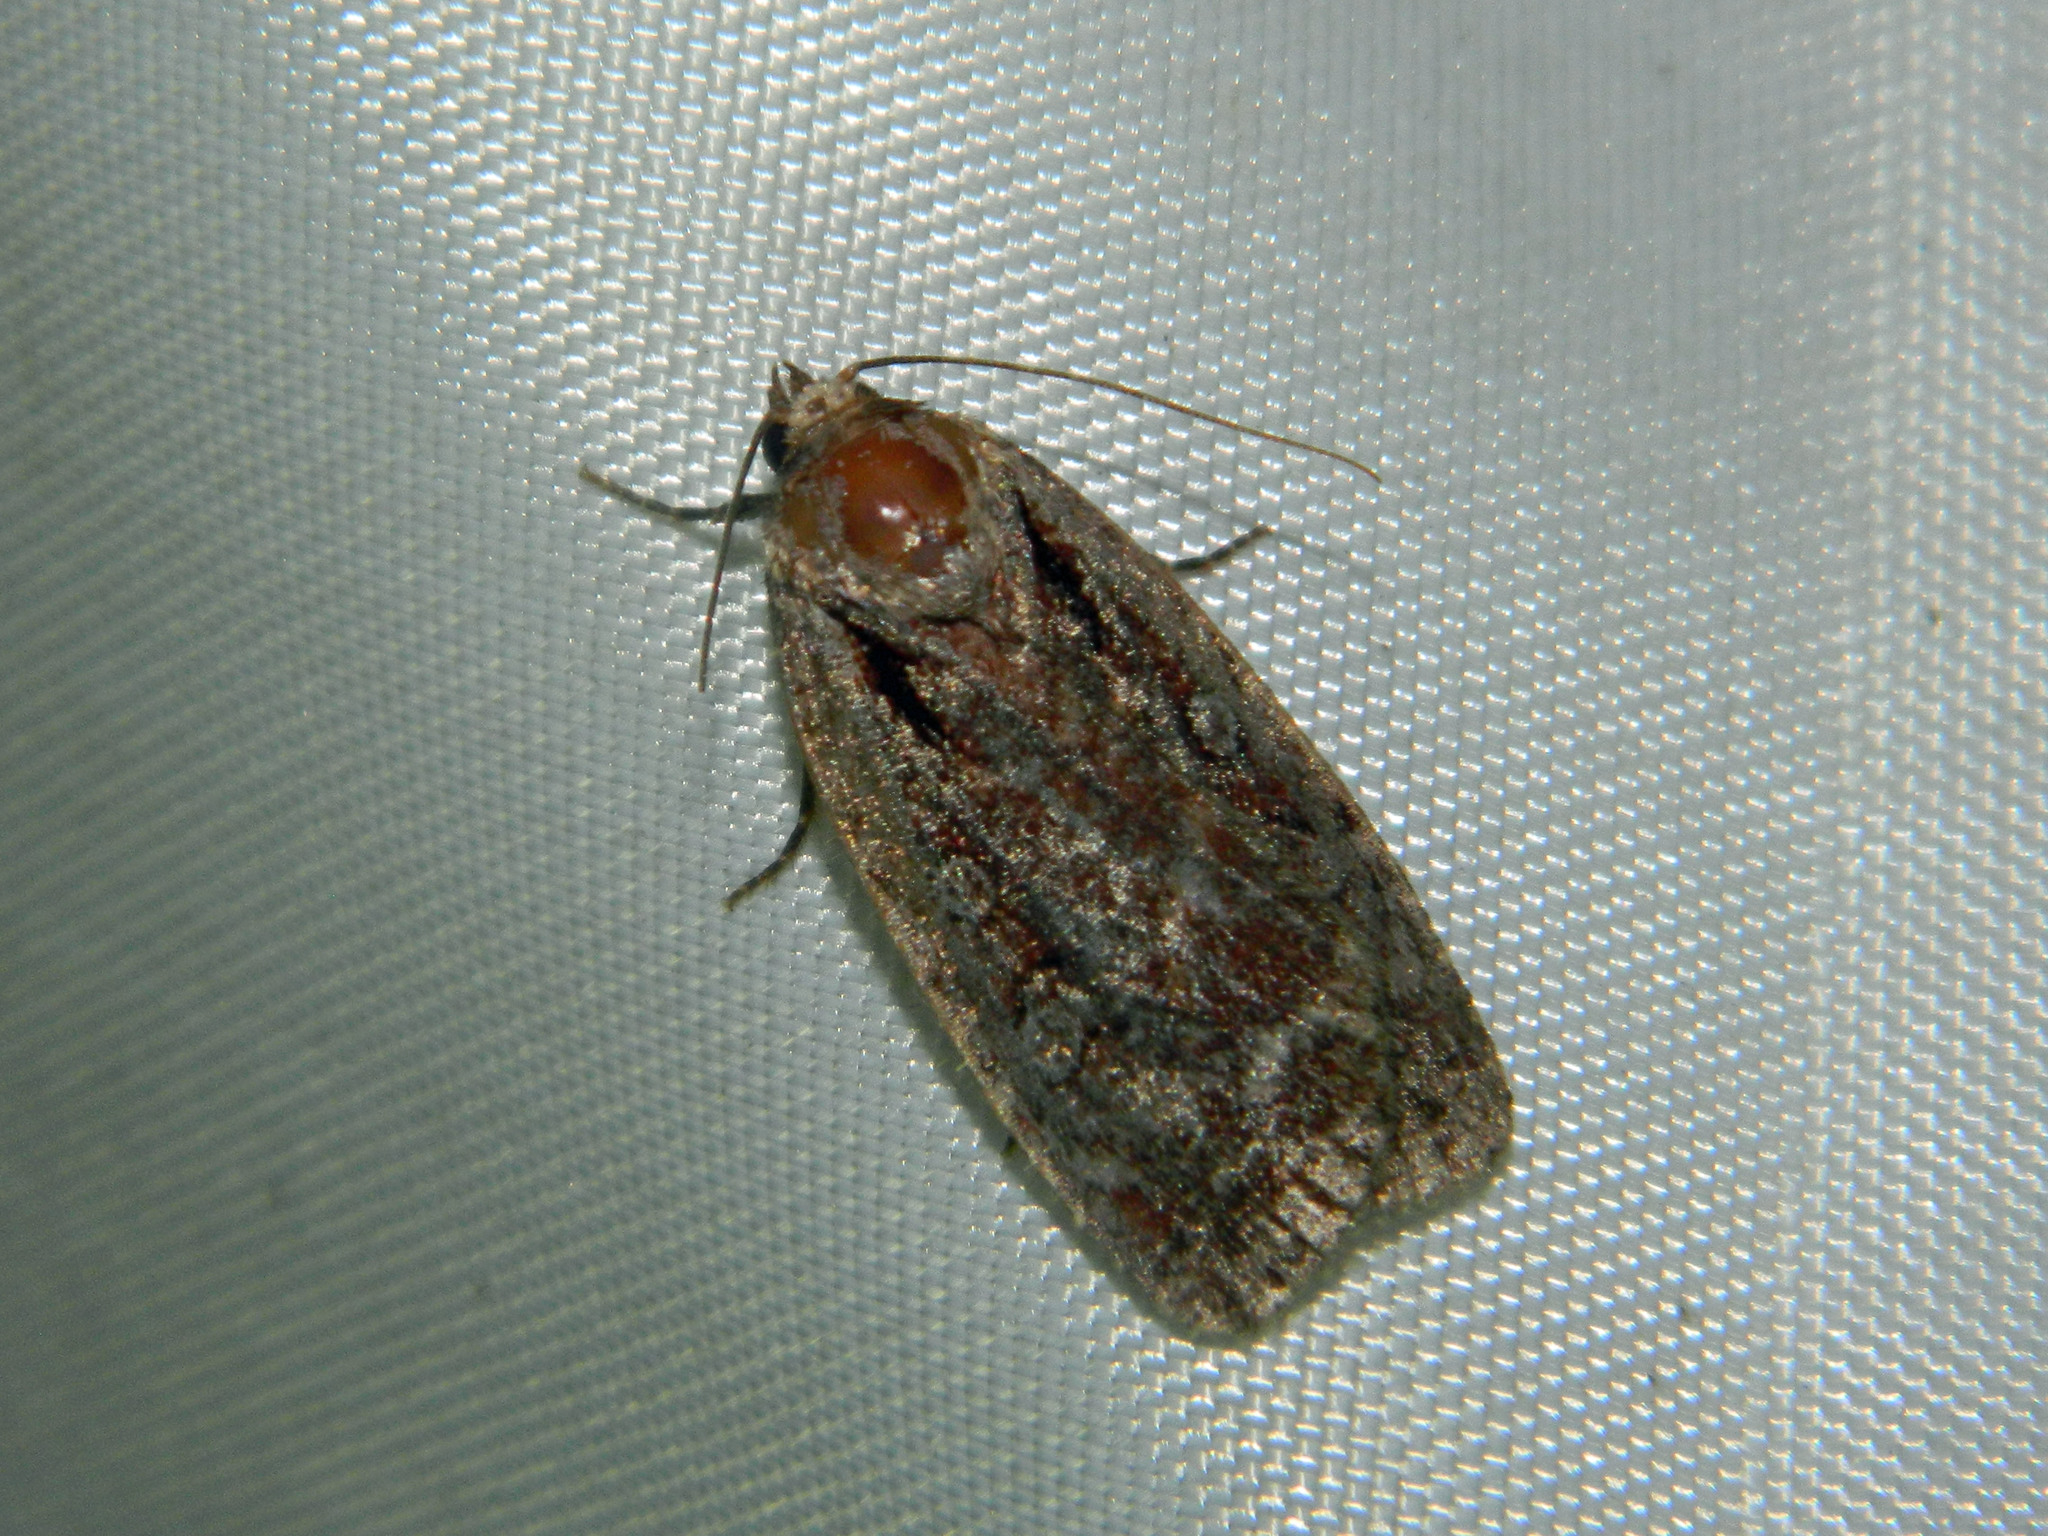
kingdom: Animalia
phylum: Arthropoda
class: Insecta
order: Lepidoptera
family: Noctuidae
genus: Eueretagrotis
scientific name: Eueretagrotis attentus
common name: Attentive dart
